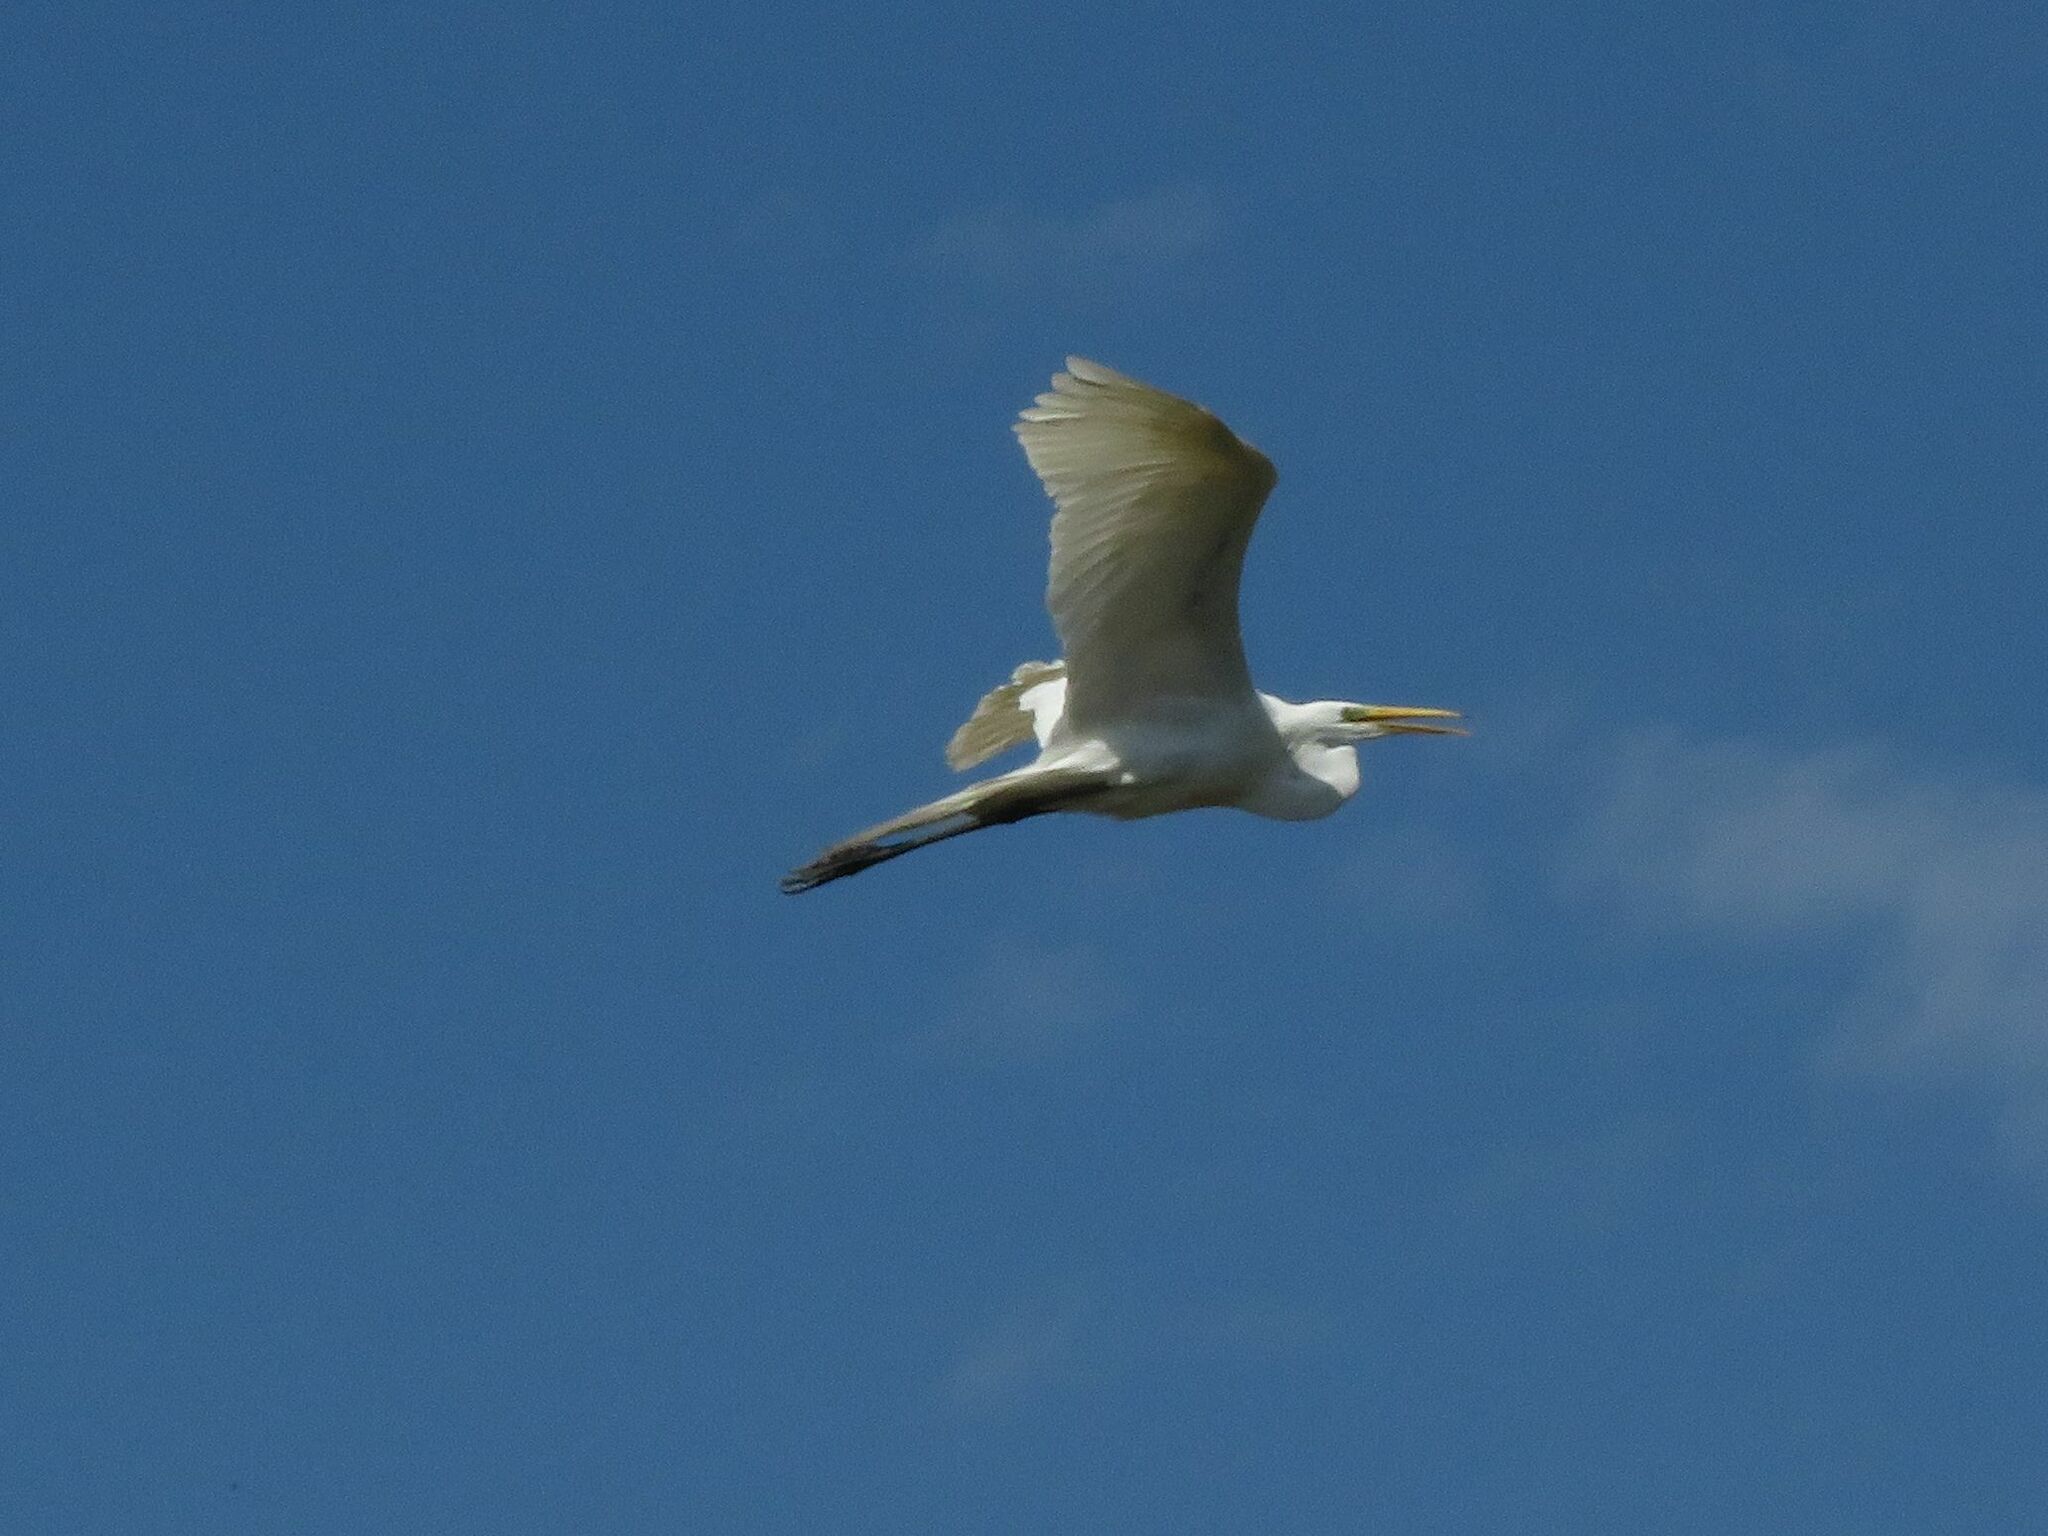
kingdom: Animalia
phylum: Chordata
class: Aves
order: Pelecaniformes
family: Ardeidae
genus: Ardea
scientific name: Ardea alba
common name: Great egret
